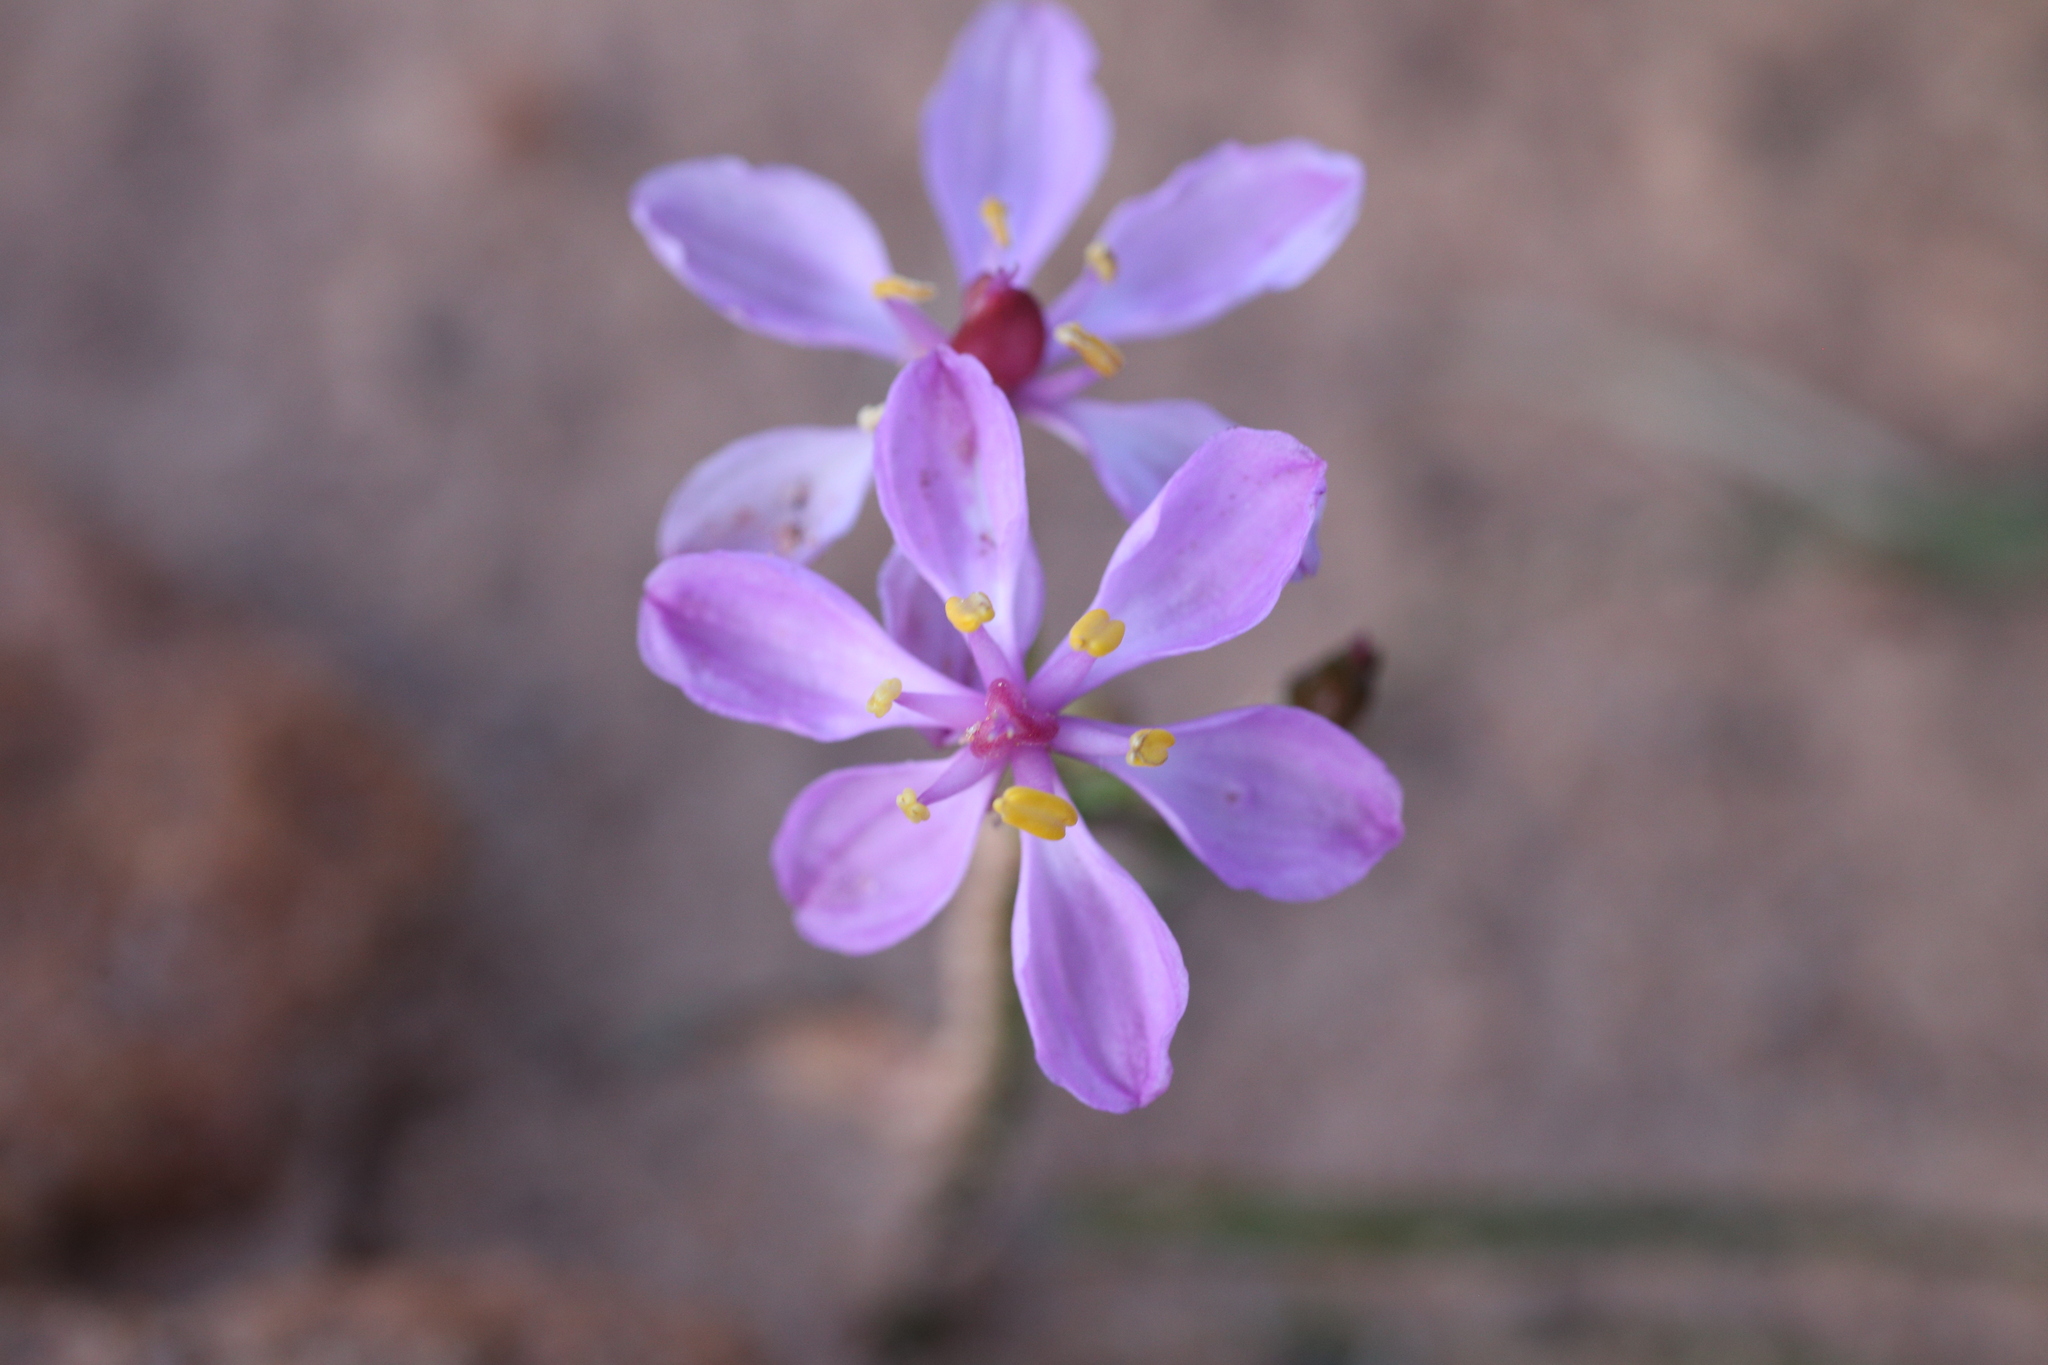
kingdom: Plantae
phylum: Tracheophyta
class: Liliopsida
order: Liliales
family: Colchicaceae
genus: Burchardia
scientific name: Burchardia rosea
